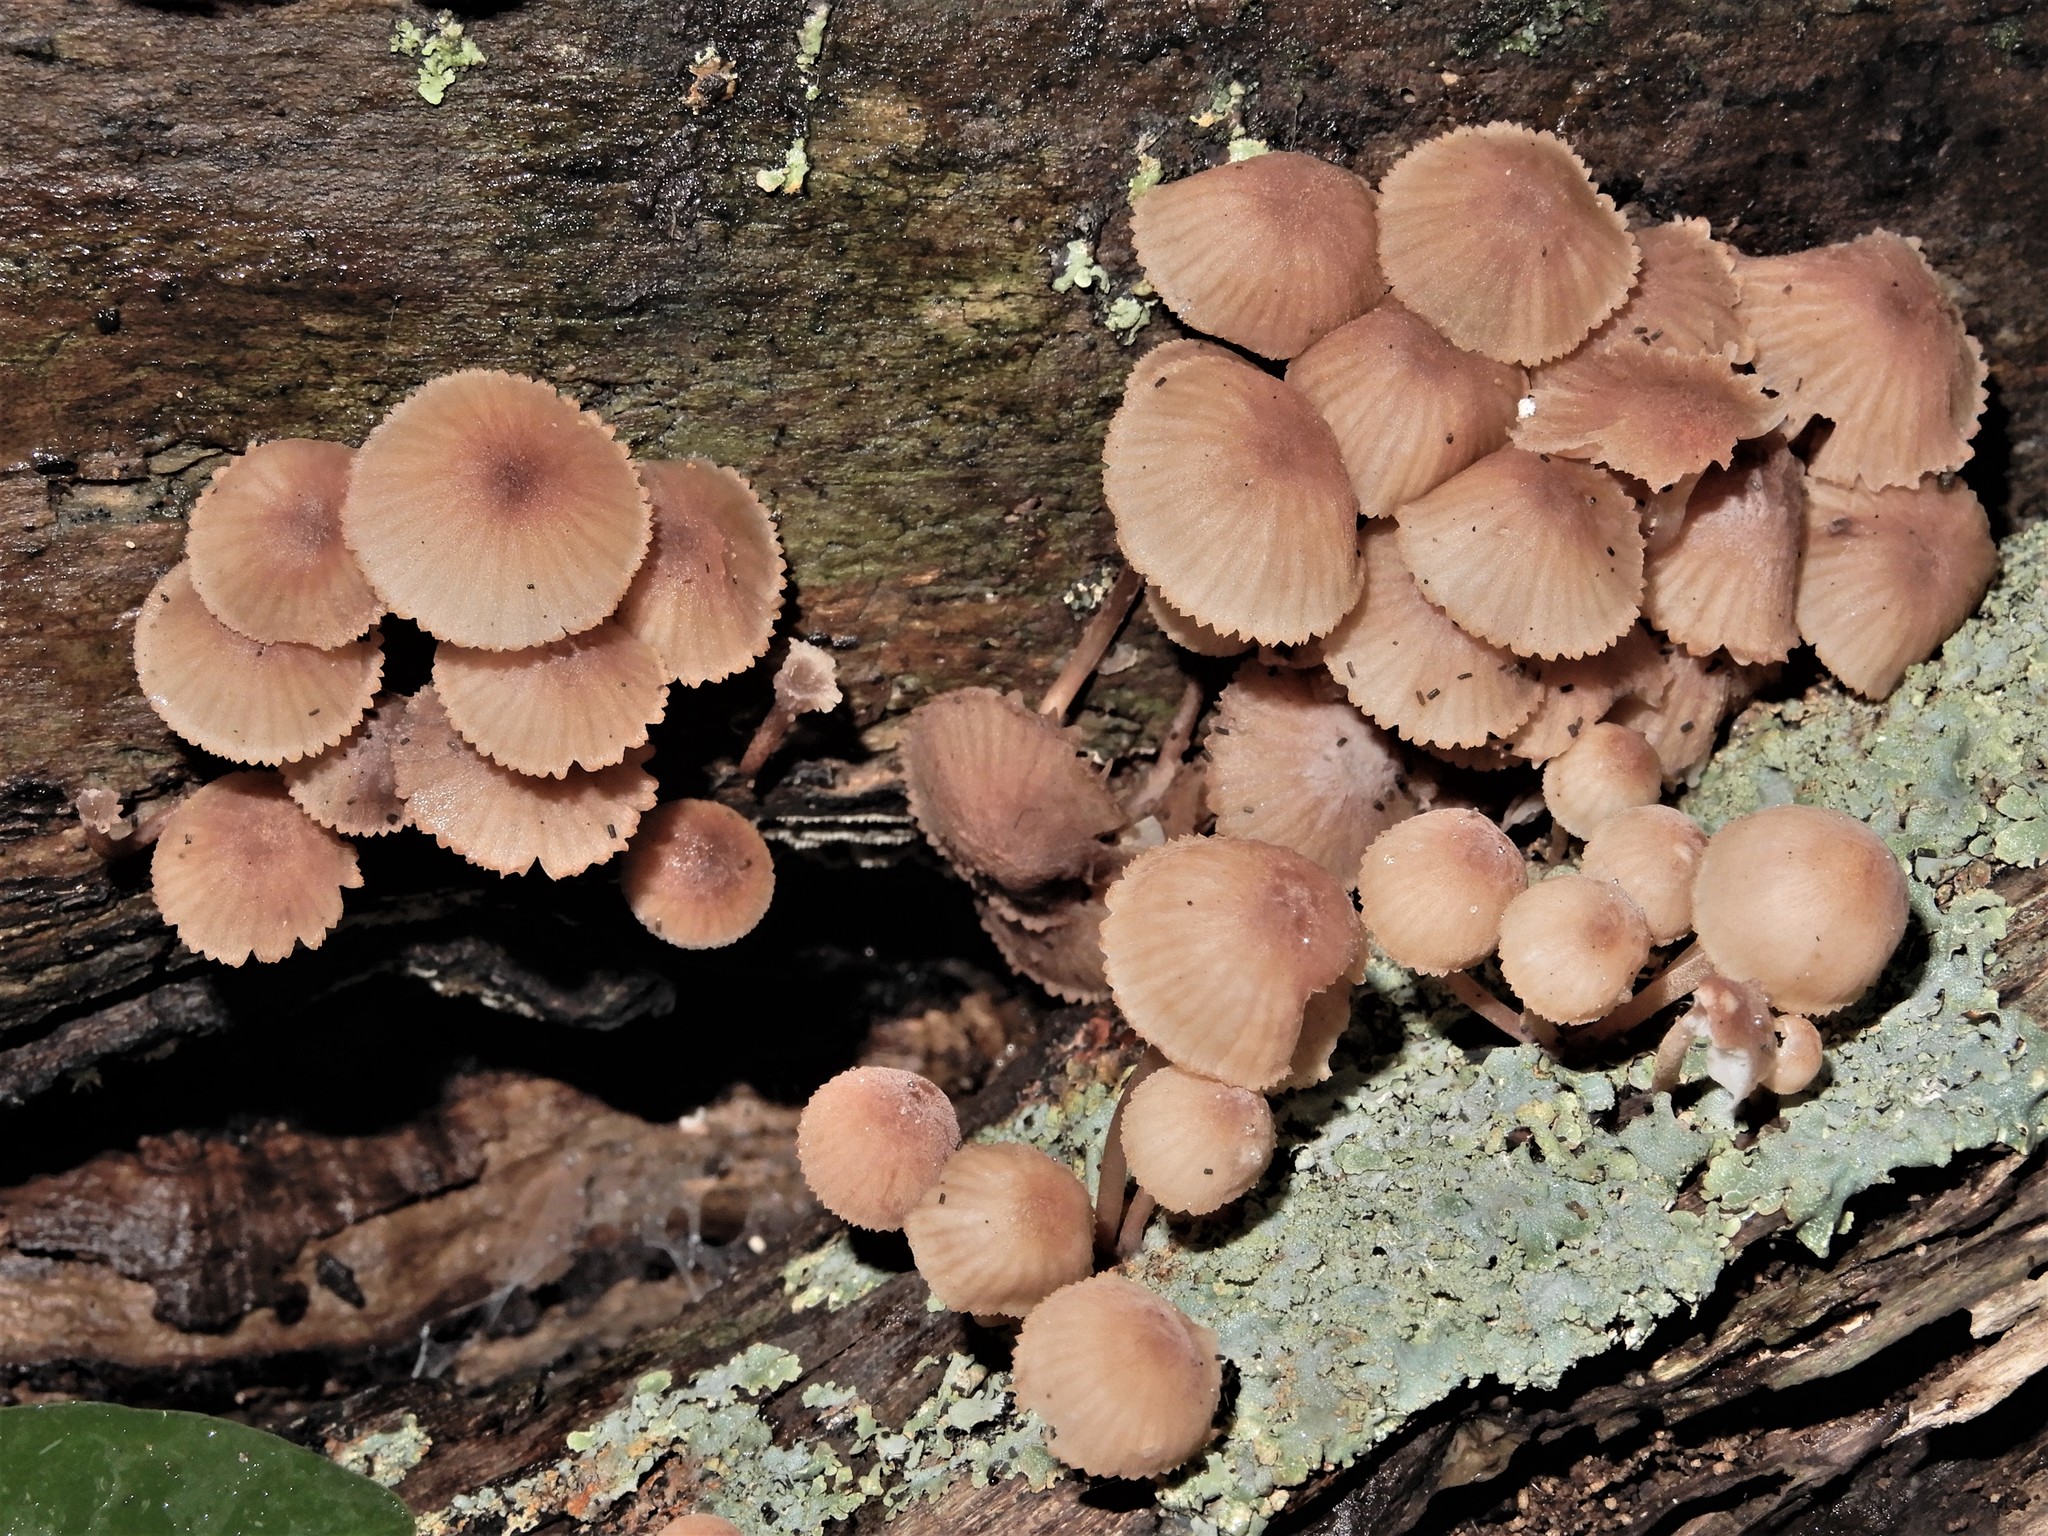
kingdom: Fungi
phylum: Basidiomycota
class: Agaricomycetes
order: Agaricales
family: Mycenaceae
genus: Mycena
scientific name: Mycena parsonsii
